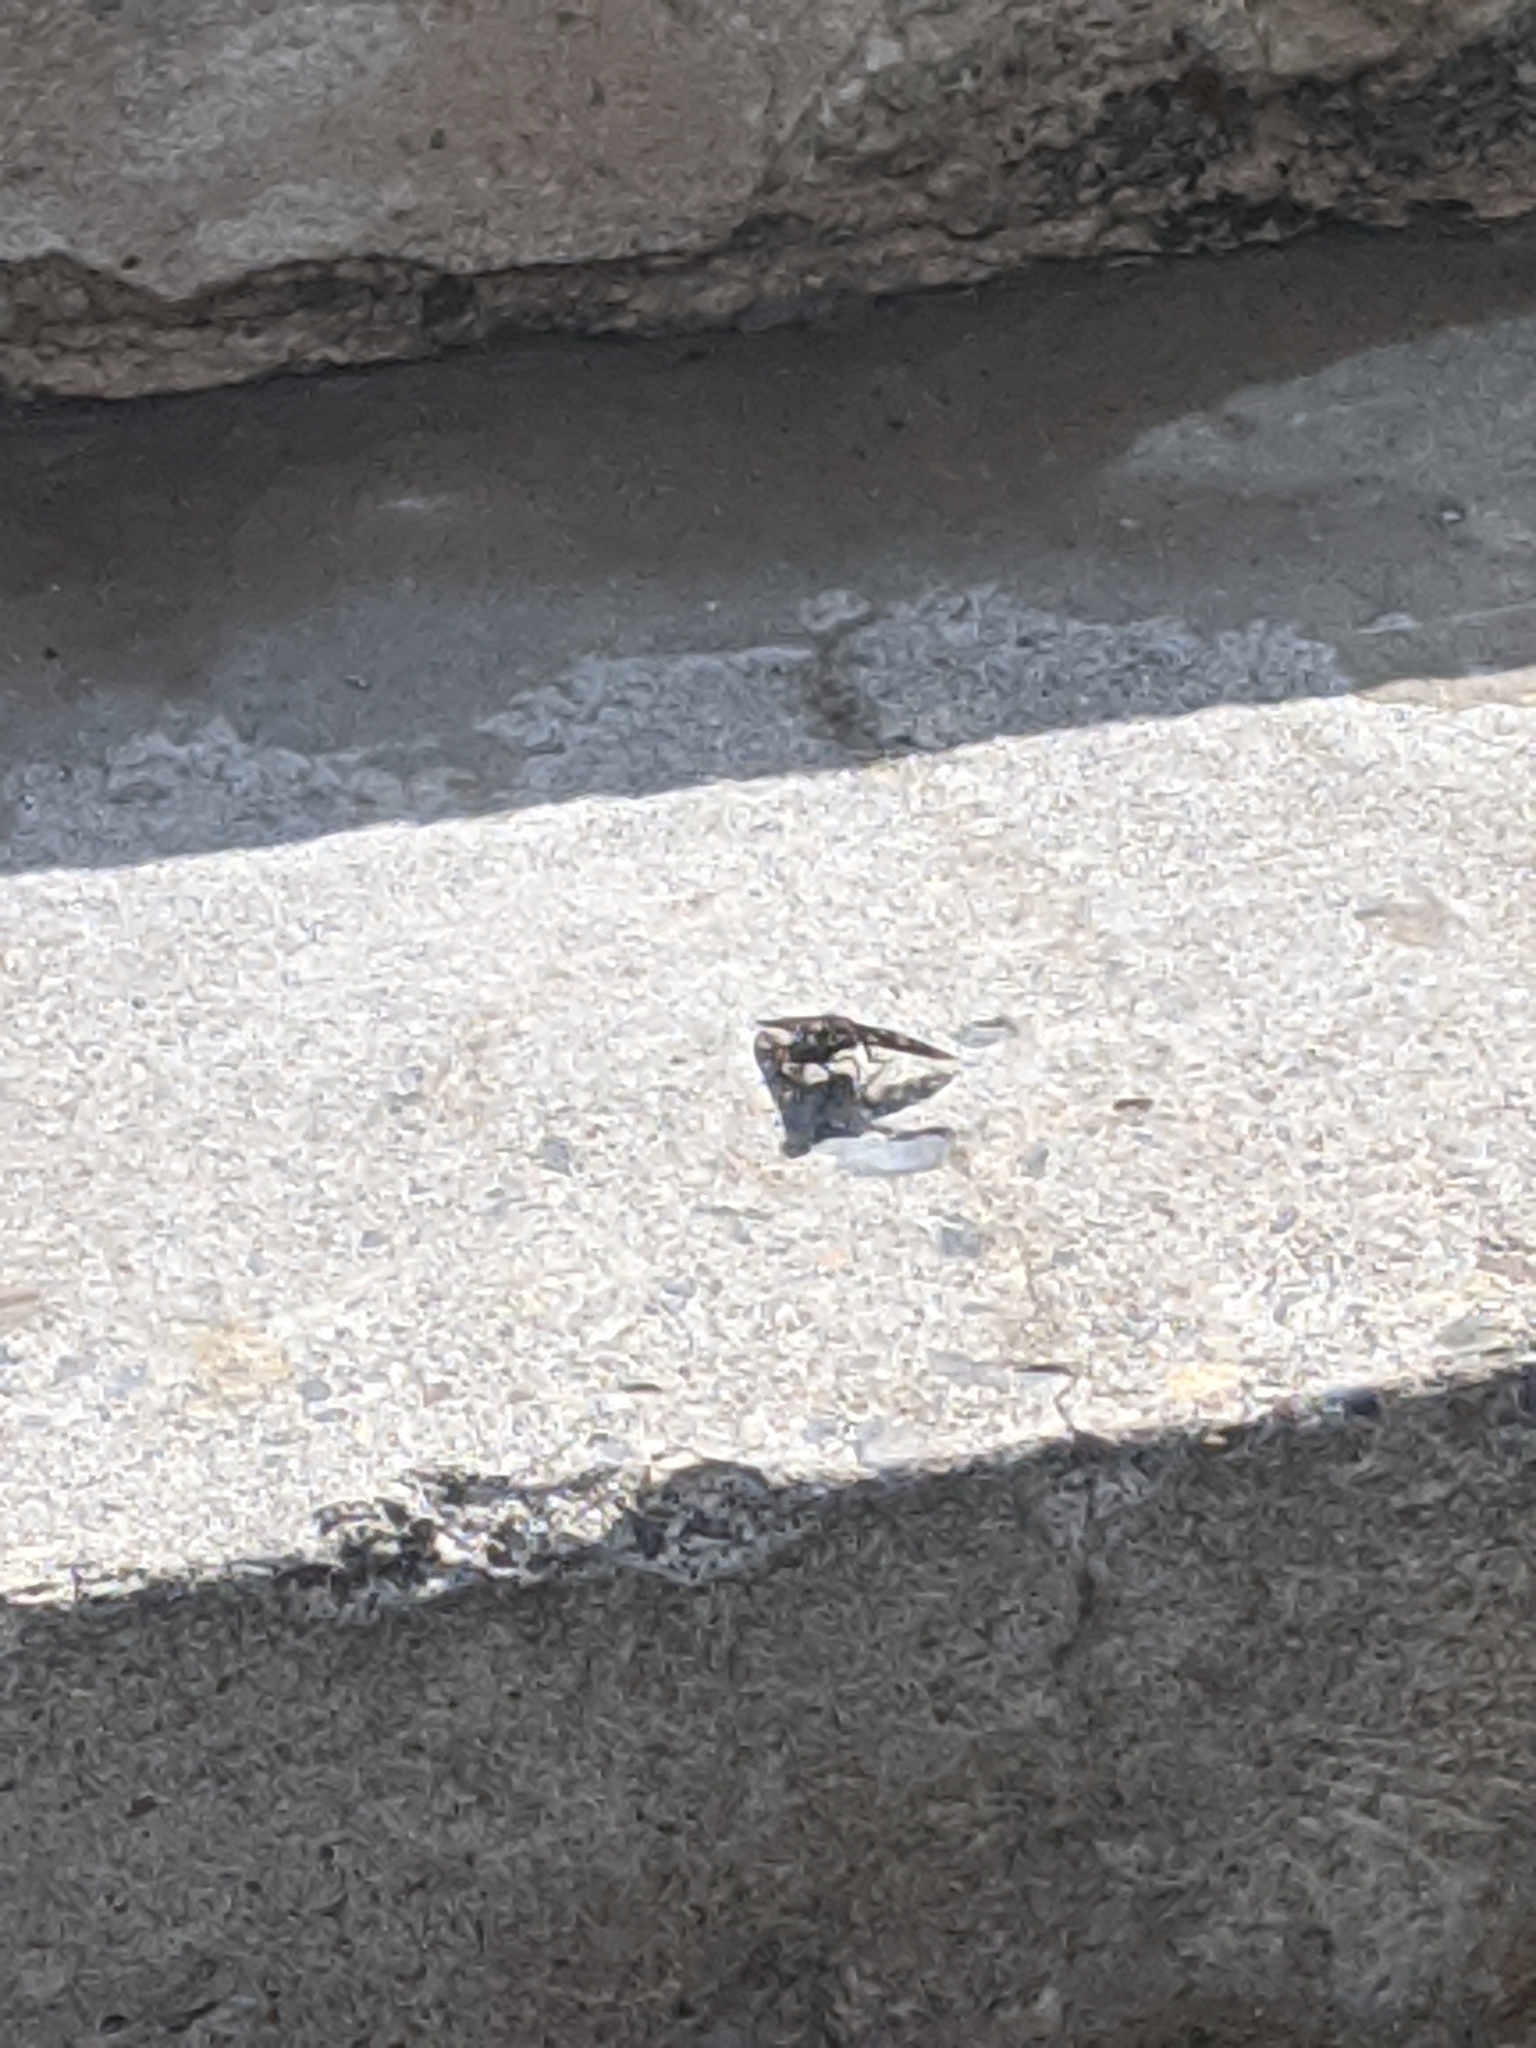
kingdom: Animalia
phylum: Arthropoda
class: Insecta
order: Diptera
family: Bombyliidae
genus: Xenox
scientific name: Xenox tigrinus
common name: Tiger bee fly
